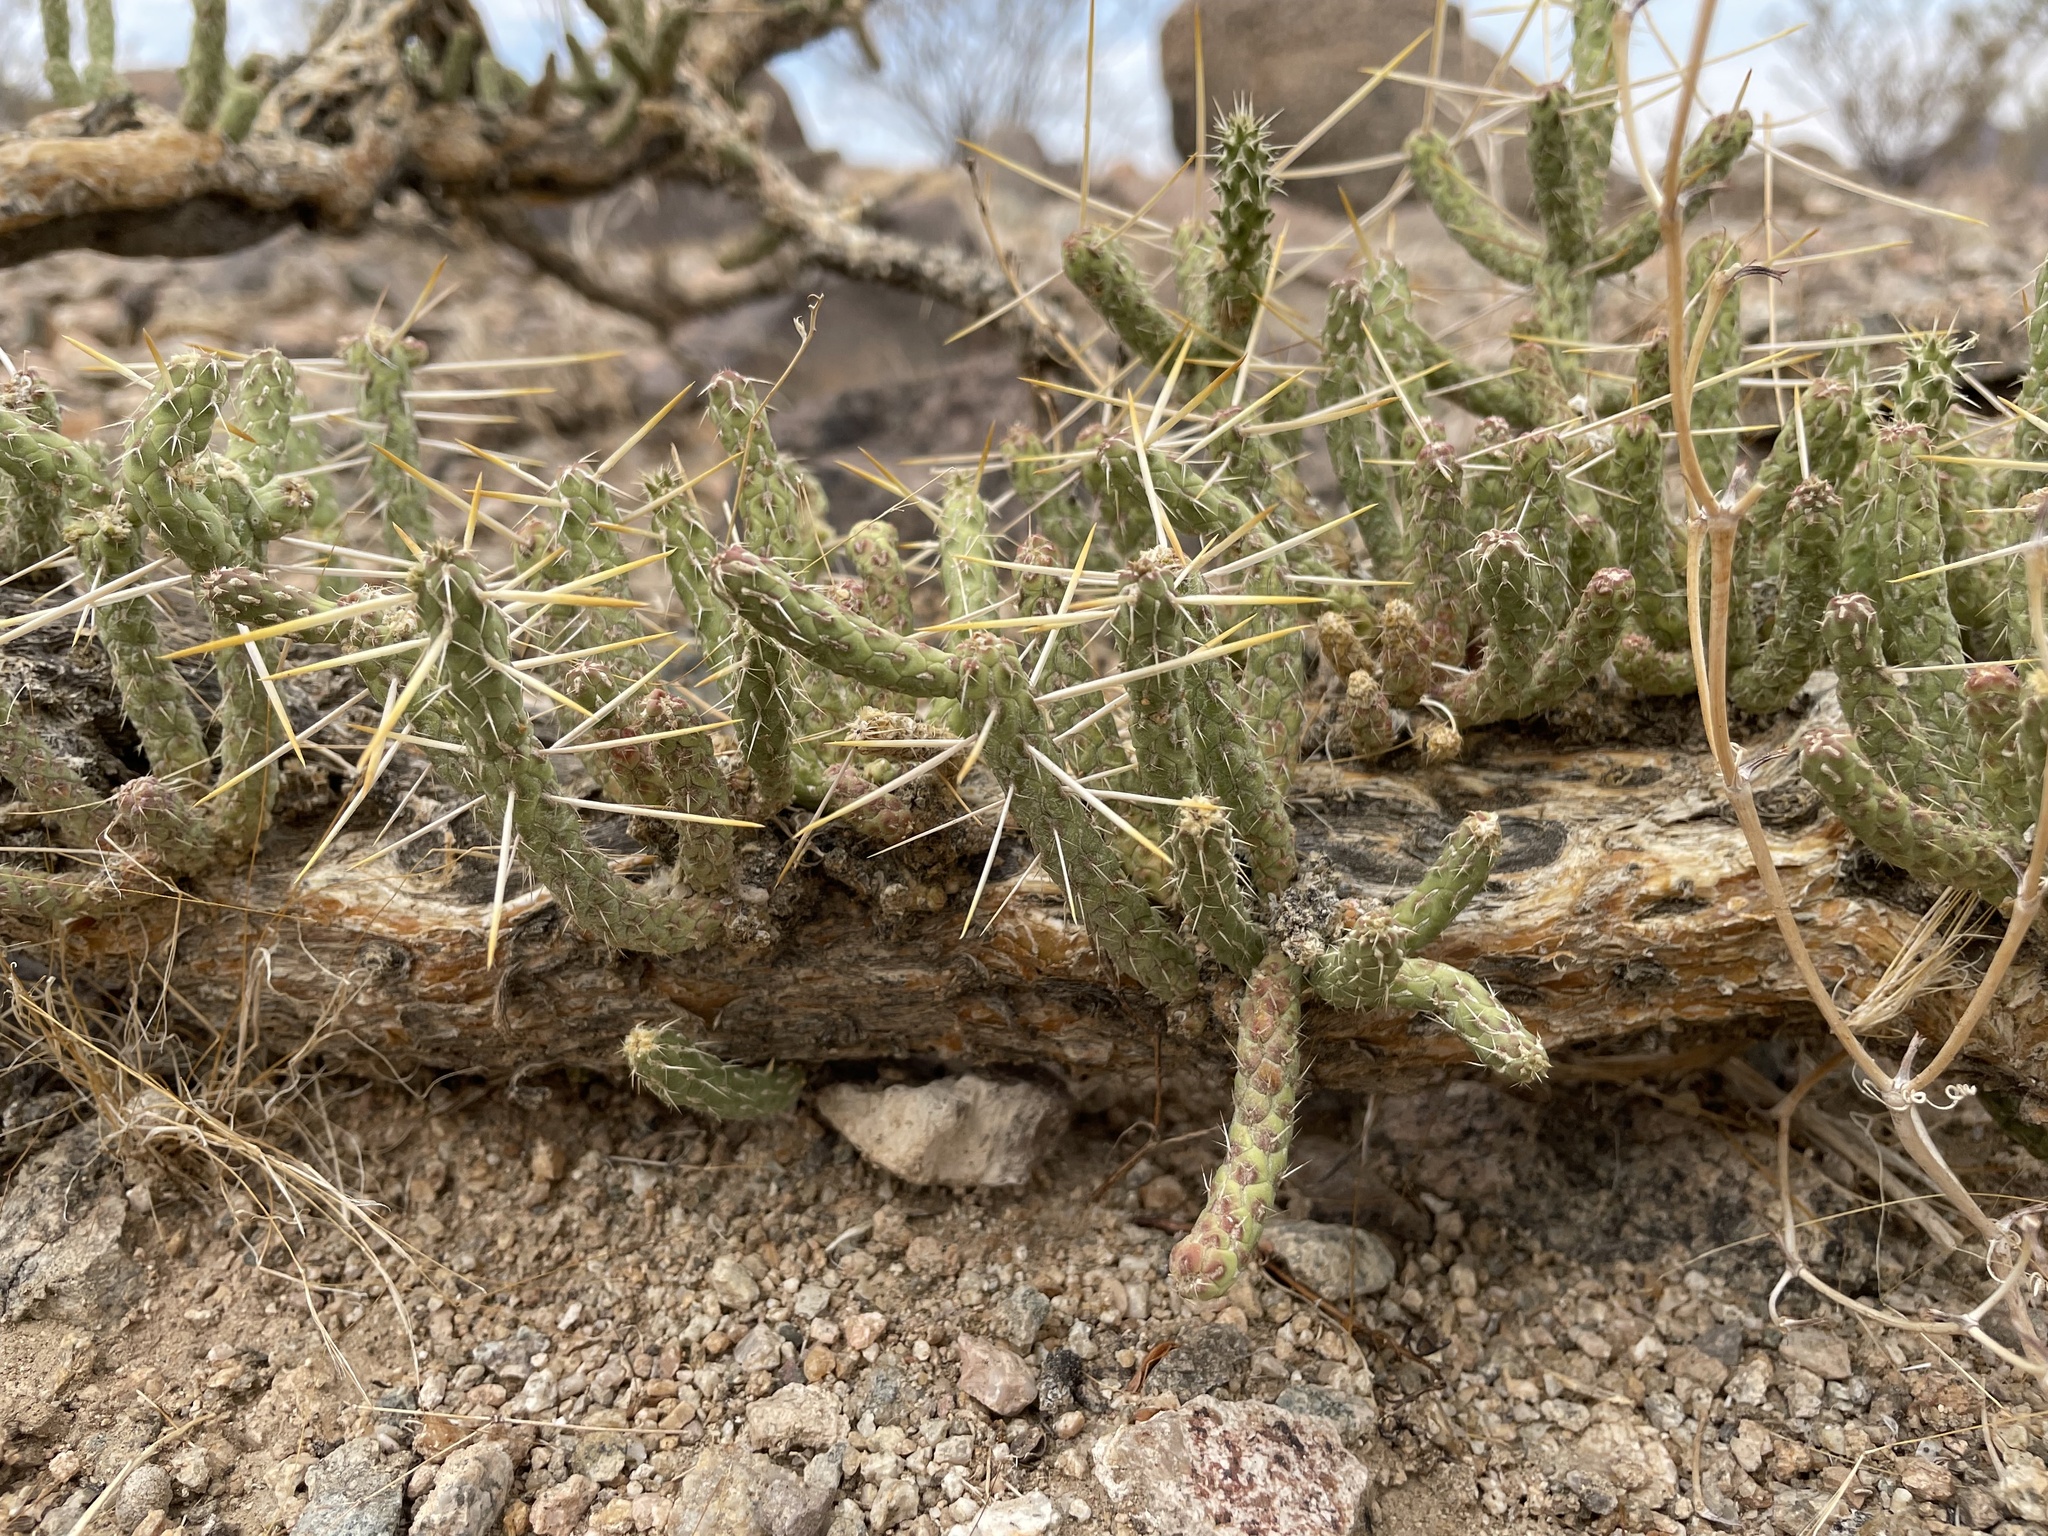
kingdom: Plantae
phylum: Tracheophyta
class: Magnoliopsida
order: Caryophyllales
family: Cactaceae
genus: Cylindropuntia
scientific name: Cylindropuntia ramosissima
